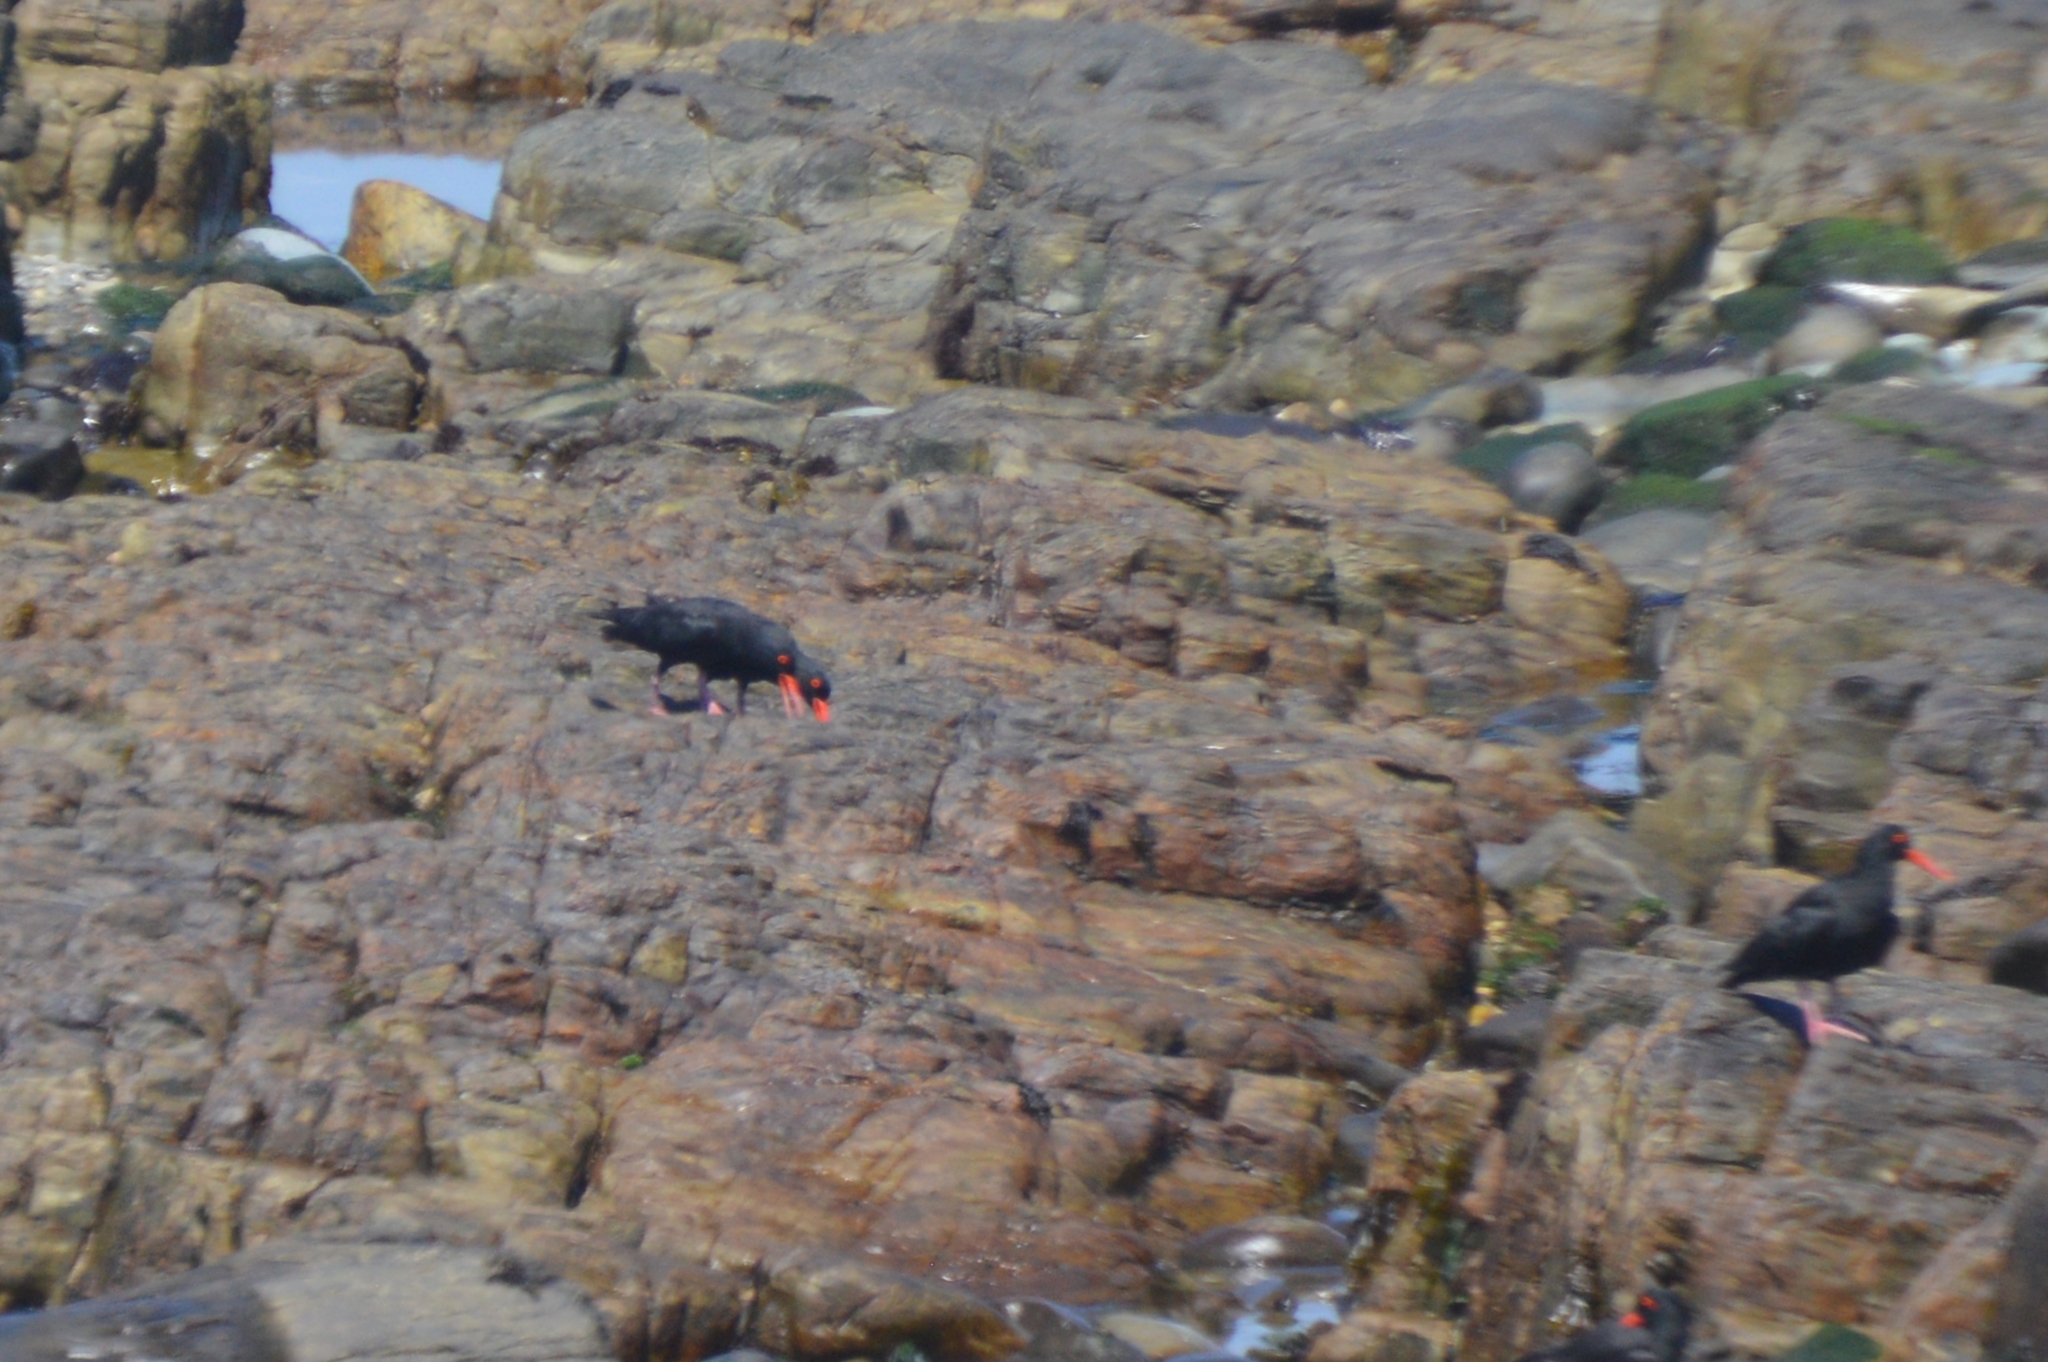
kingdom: Animalia
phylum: Chordata
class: Aves
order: Charadriiformes
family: Haematopodidae
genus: Haematopus
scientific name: Haematopus moquini
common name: African oystercatcher
